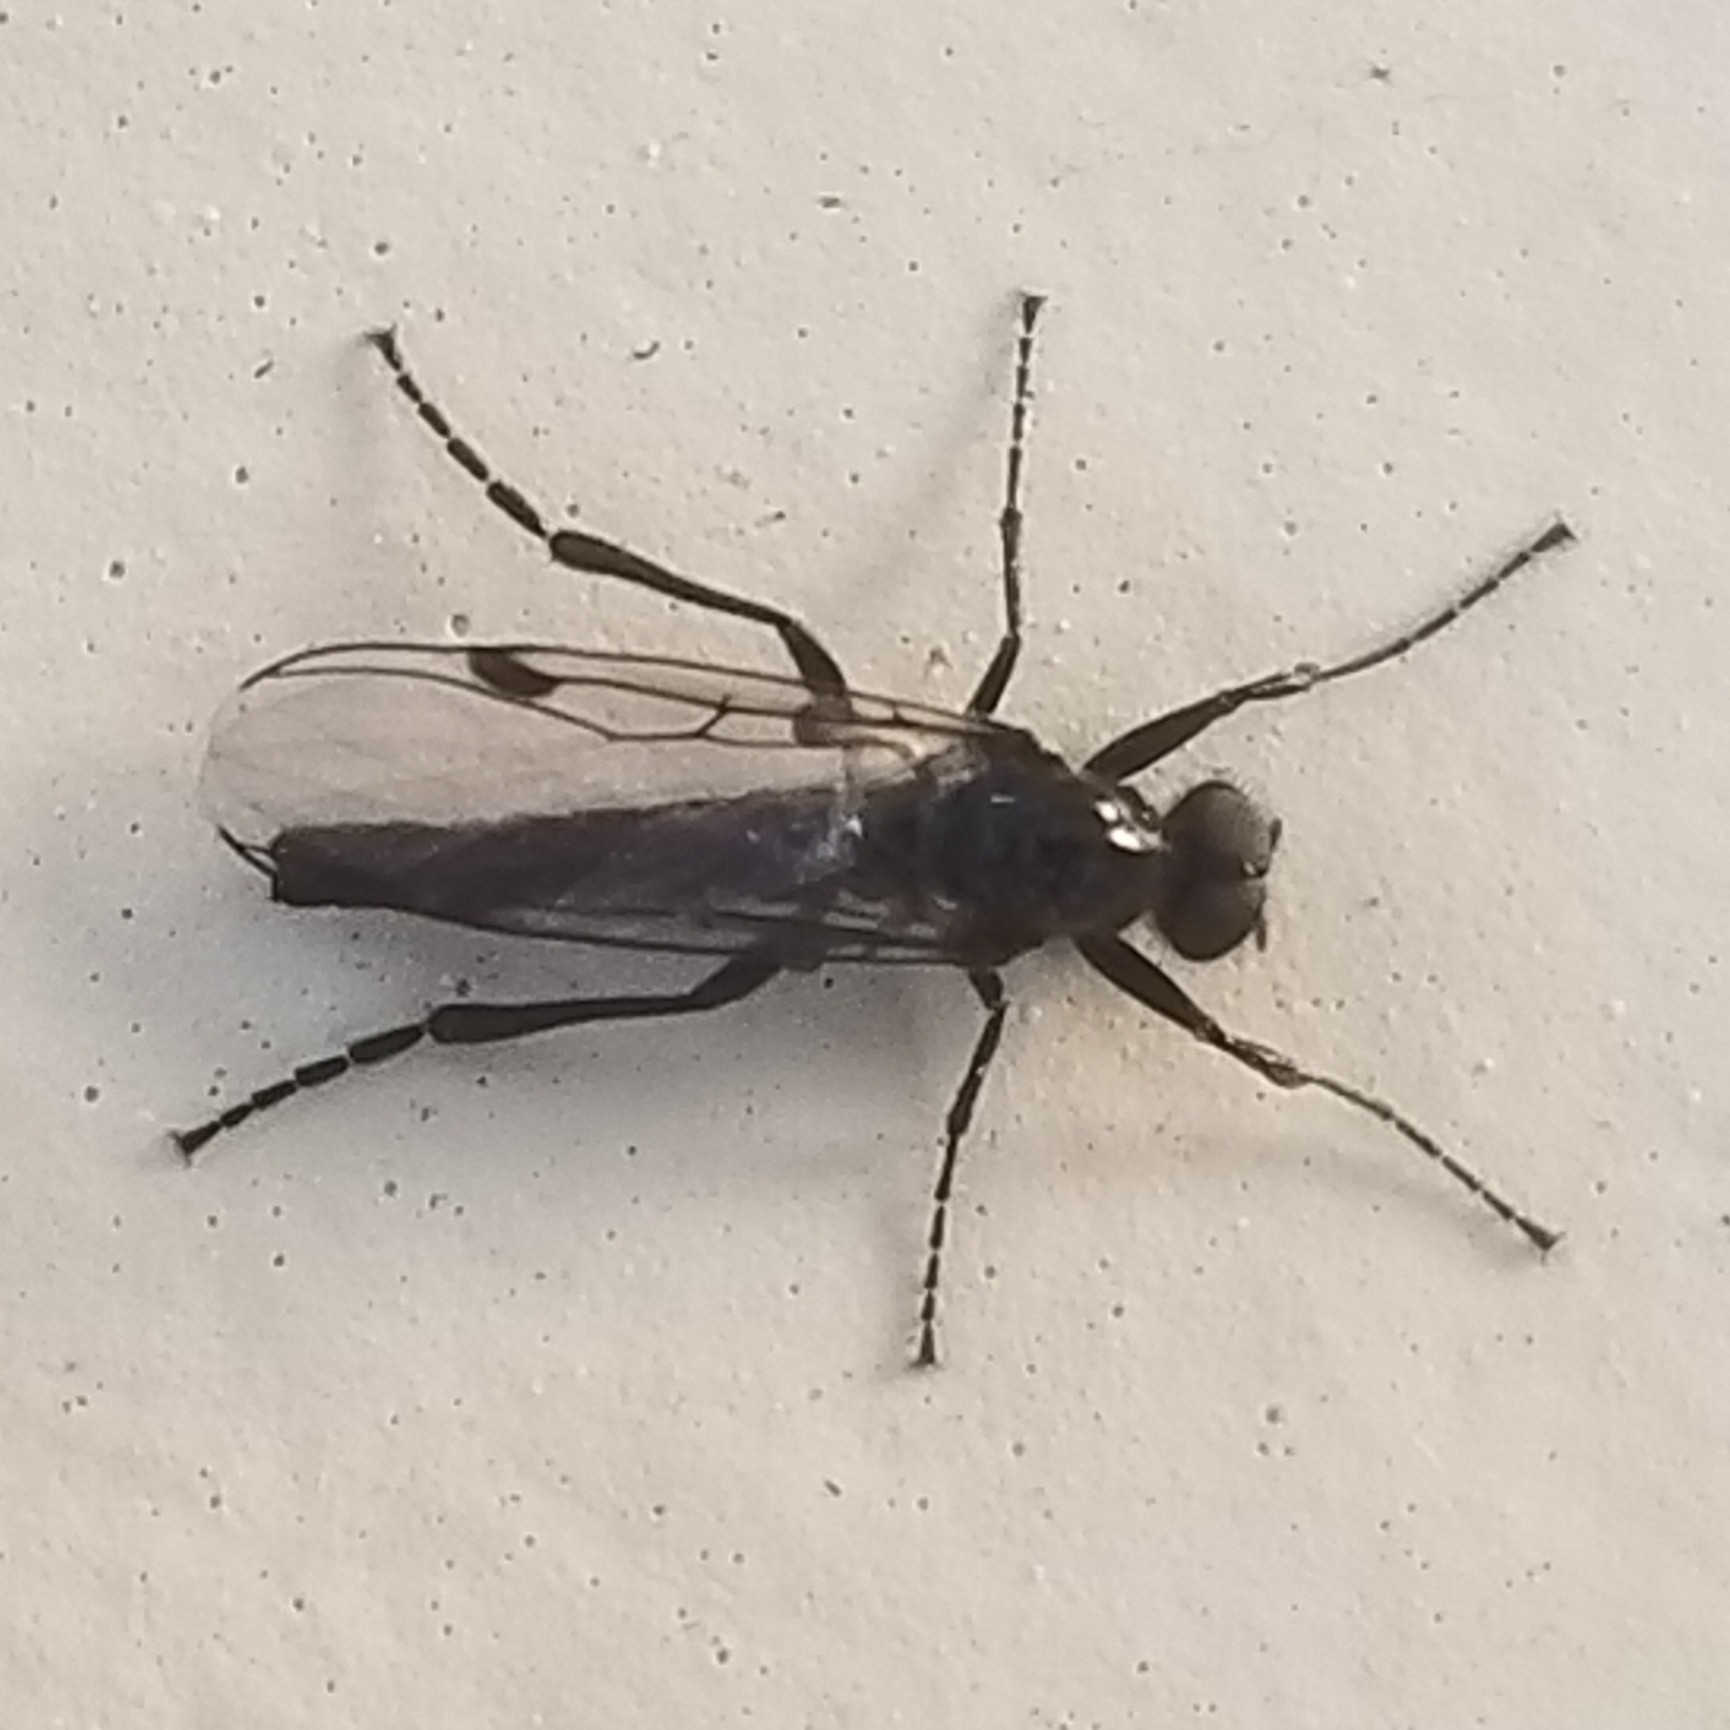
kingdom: Animalia
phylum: Arthropoda
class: Insecta
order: Diptera
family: Bibionidae
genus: Bibiodes
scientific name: Bibiodes halteralis
